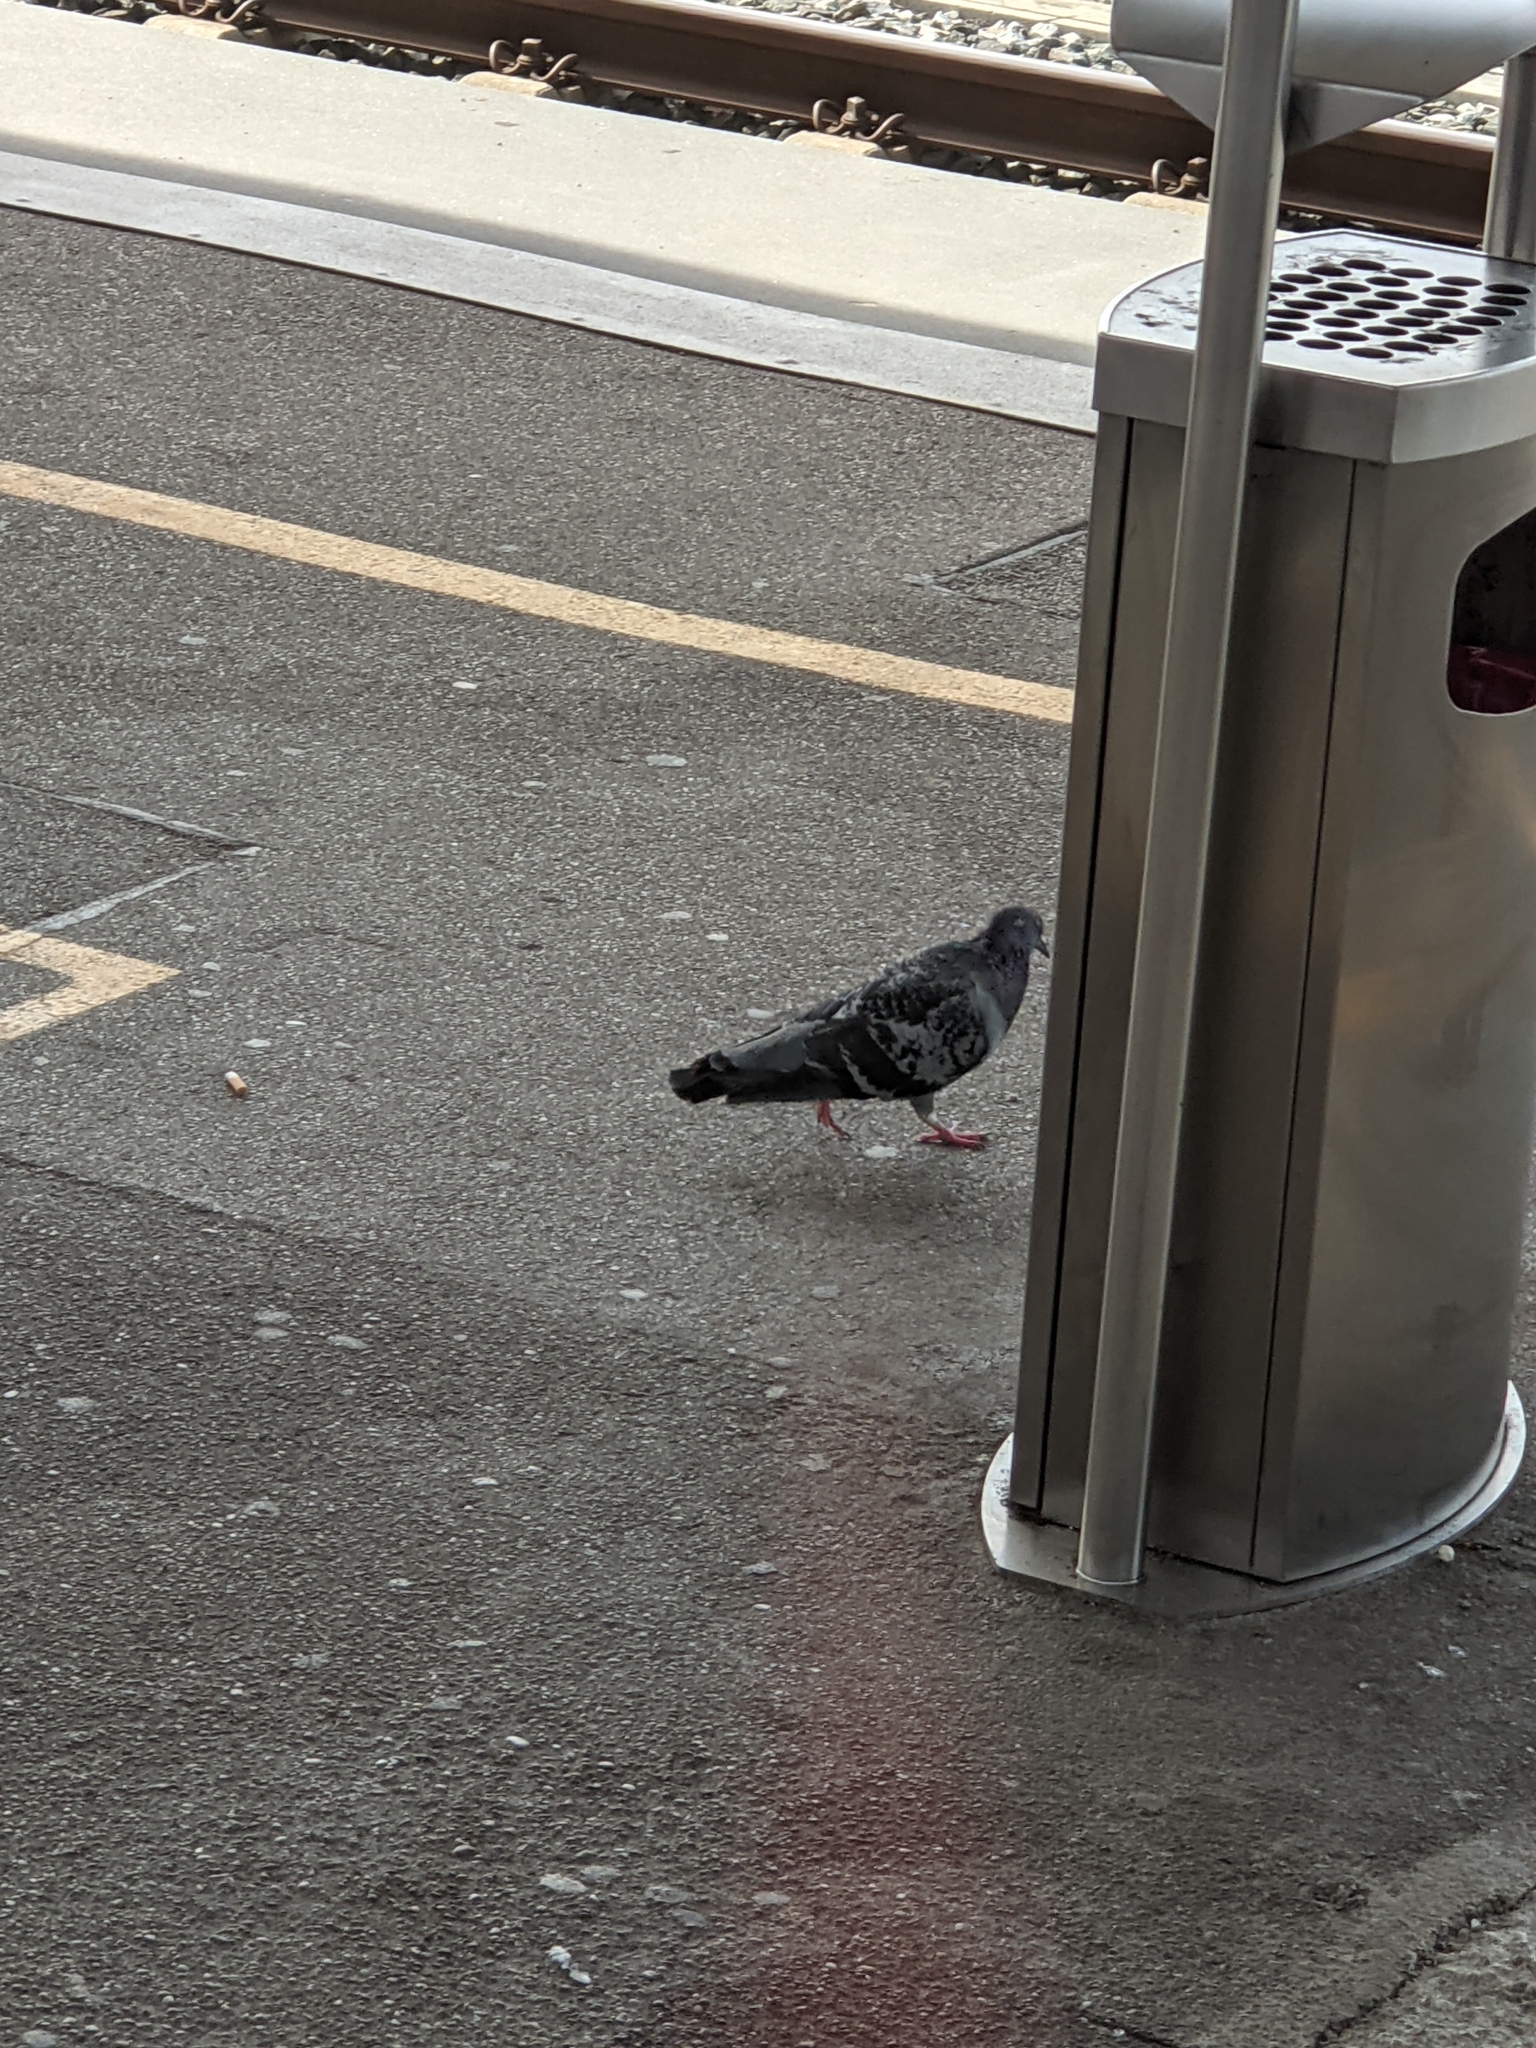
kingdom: Animalia
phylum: Chordata
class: Aves
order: Columbiformes
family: Columbidae
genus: Columba
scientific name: Columba livia
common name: Rock pigeon
